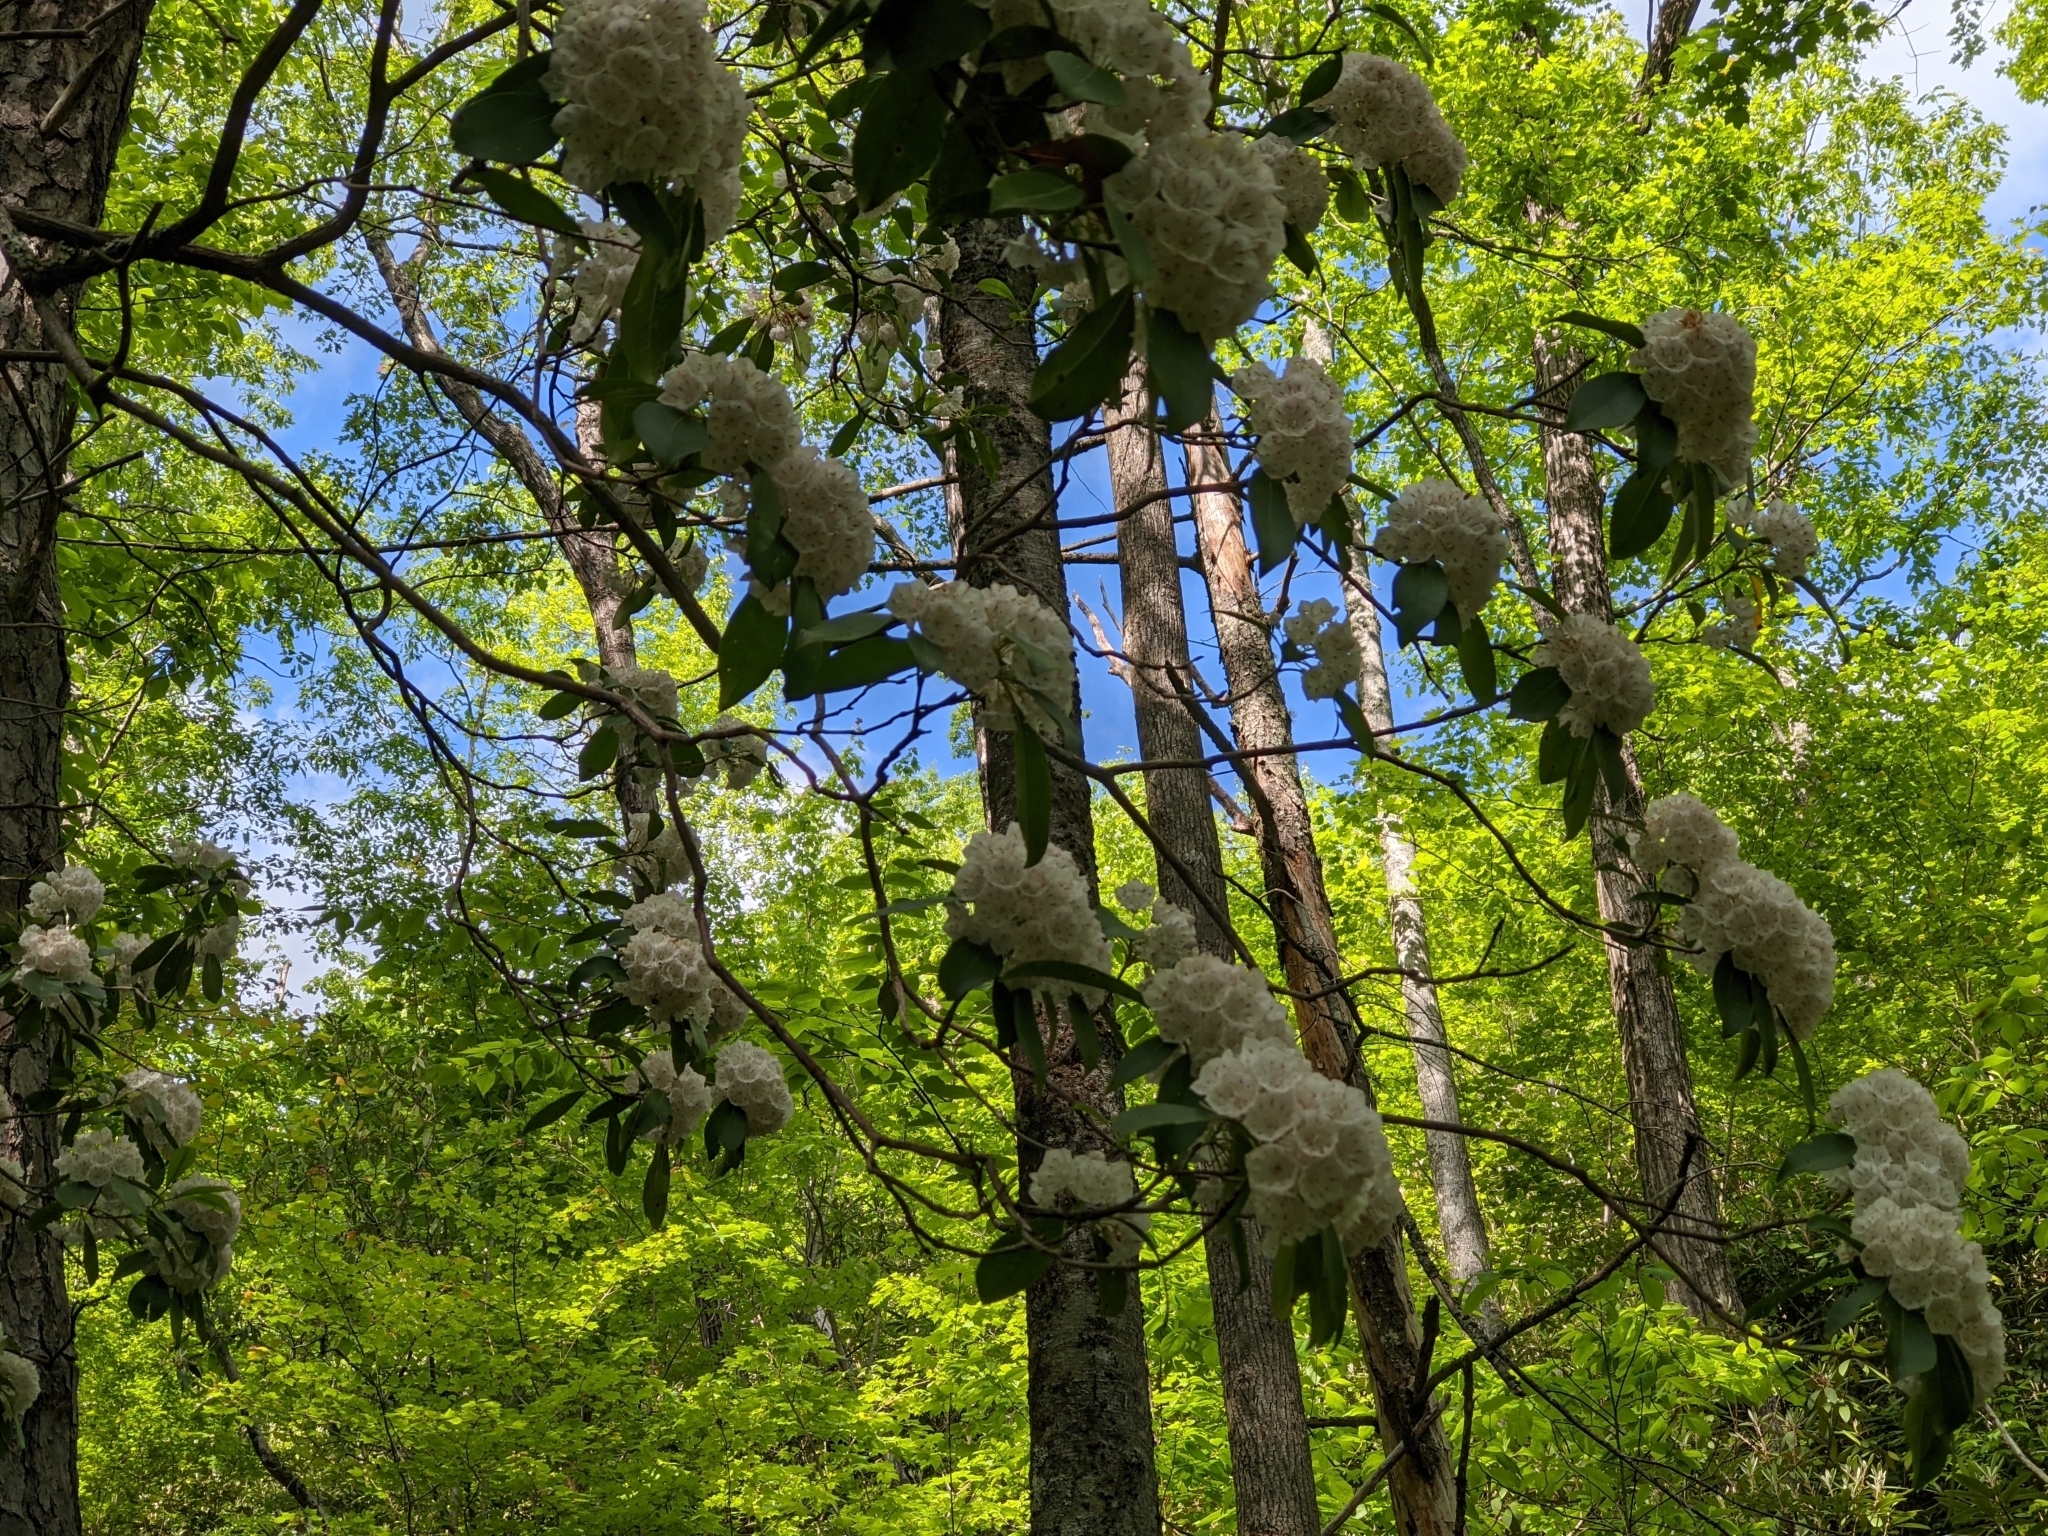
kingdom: Plantae
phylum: Tracheophyta
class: Magnoliopsida
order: Ericales
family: Ericaceae
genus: Kalmia
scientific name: Kalmia latifolia
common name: Mountain-laurel
